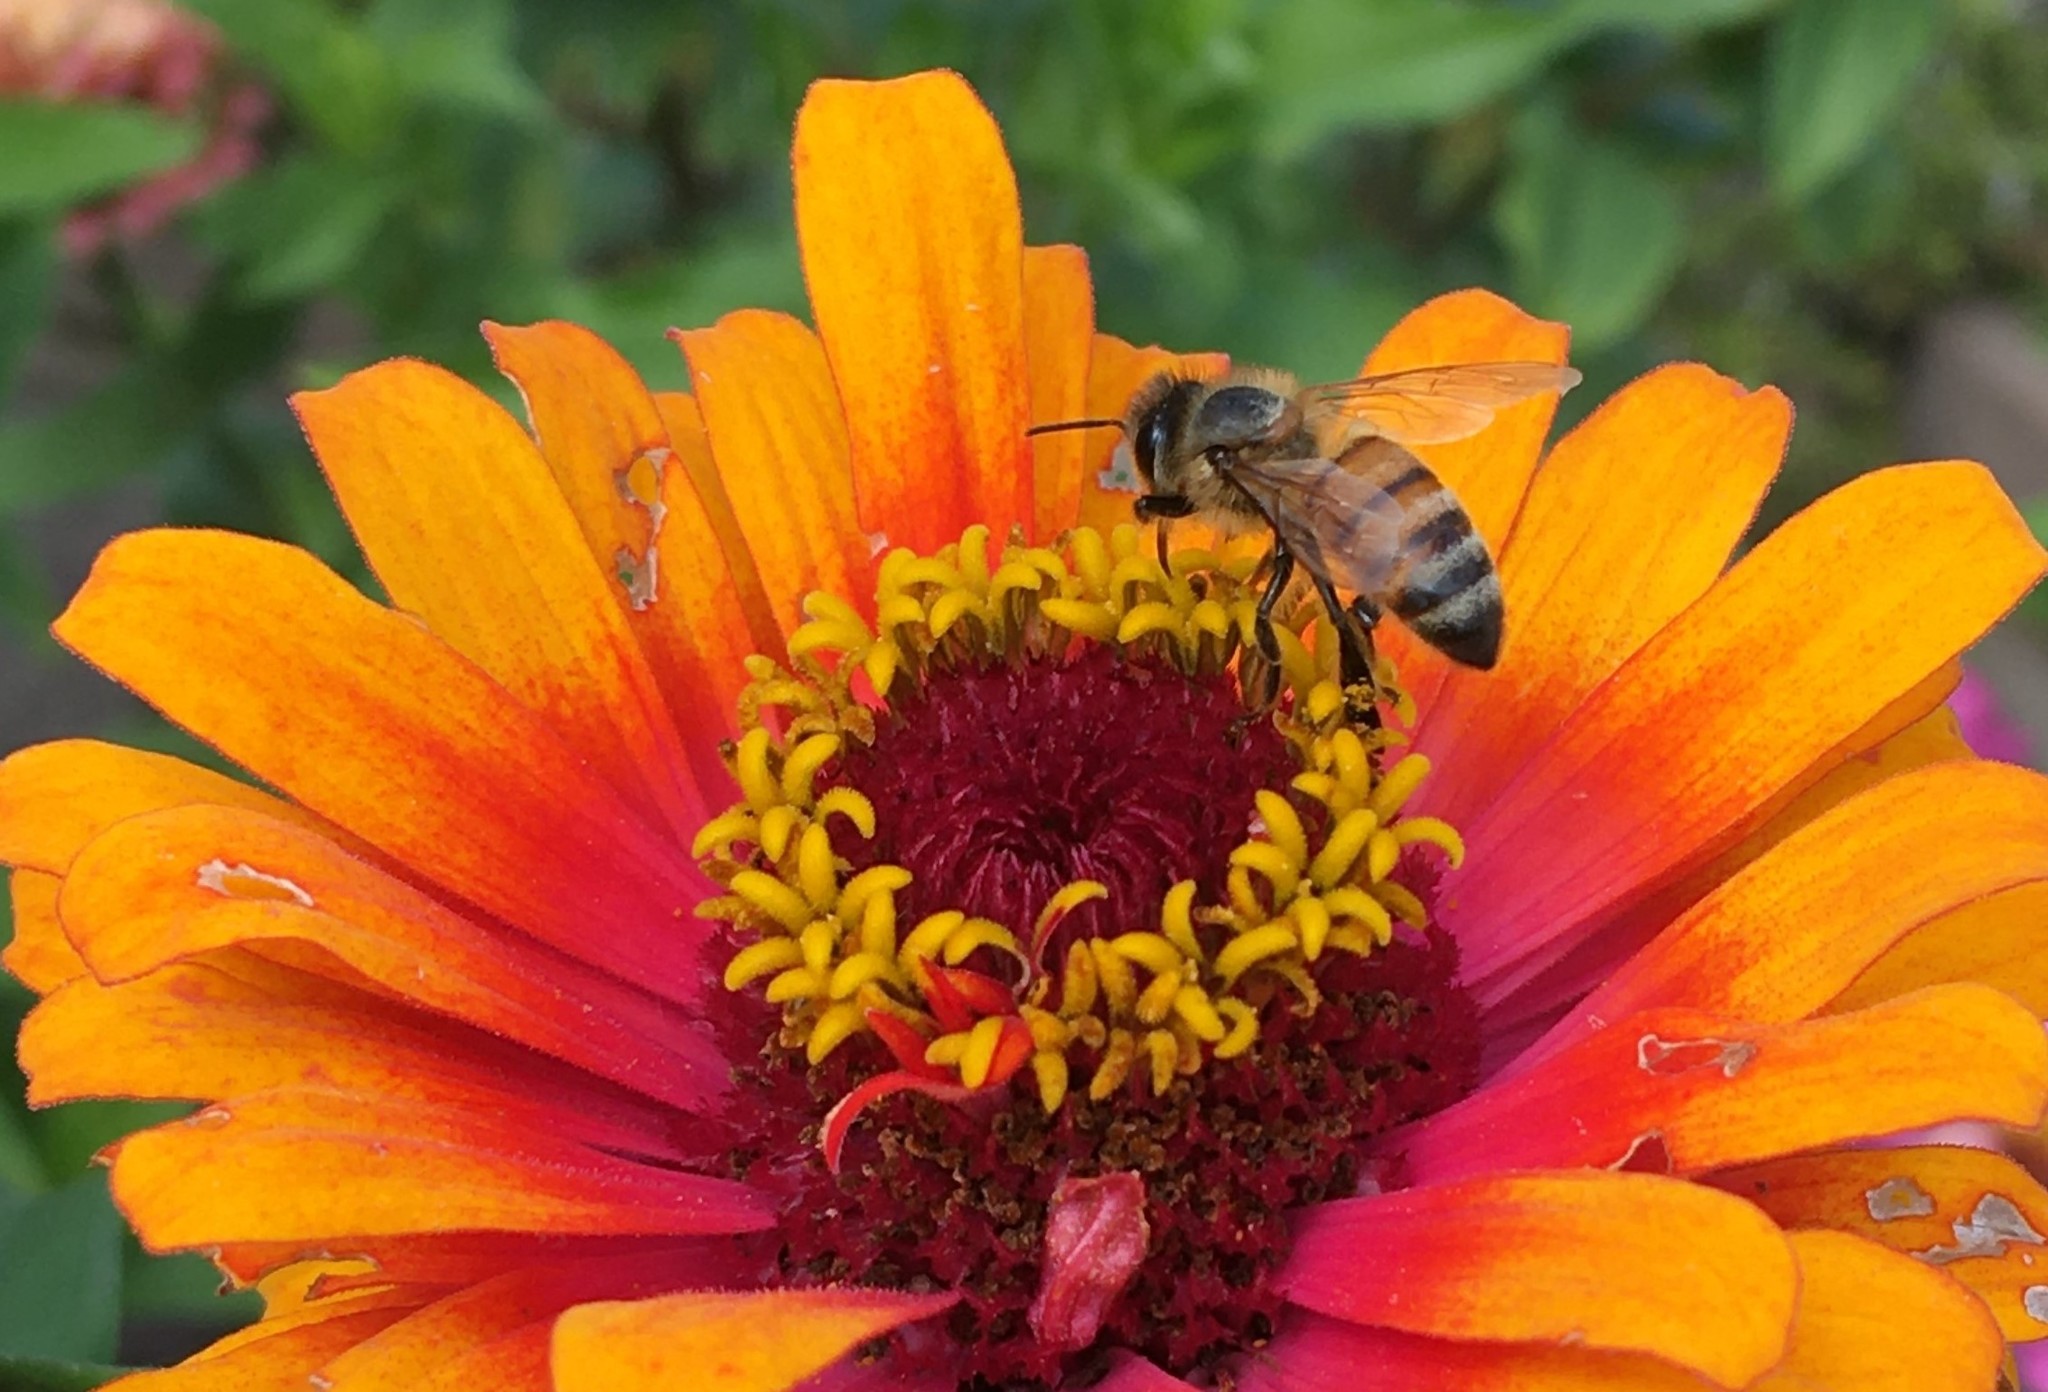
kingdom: Animalia
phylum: Arthropoda
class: Insecta
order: Hymenoptera
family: Apidae
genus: Apis
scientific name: Apis mellifera
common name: Honey bee
